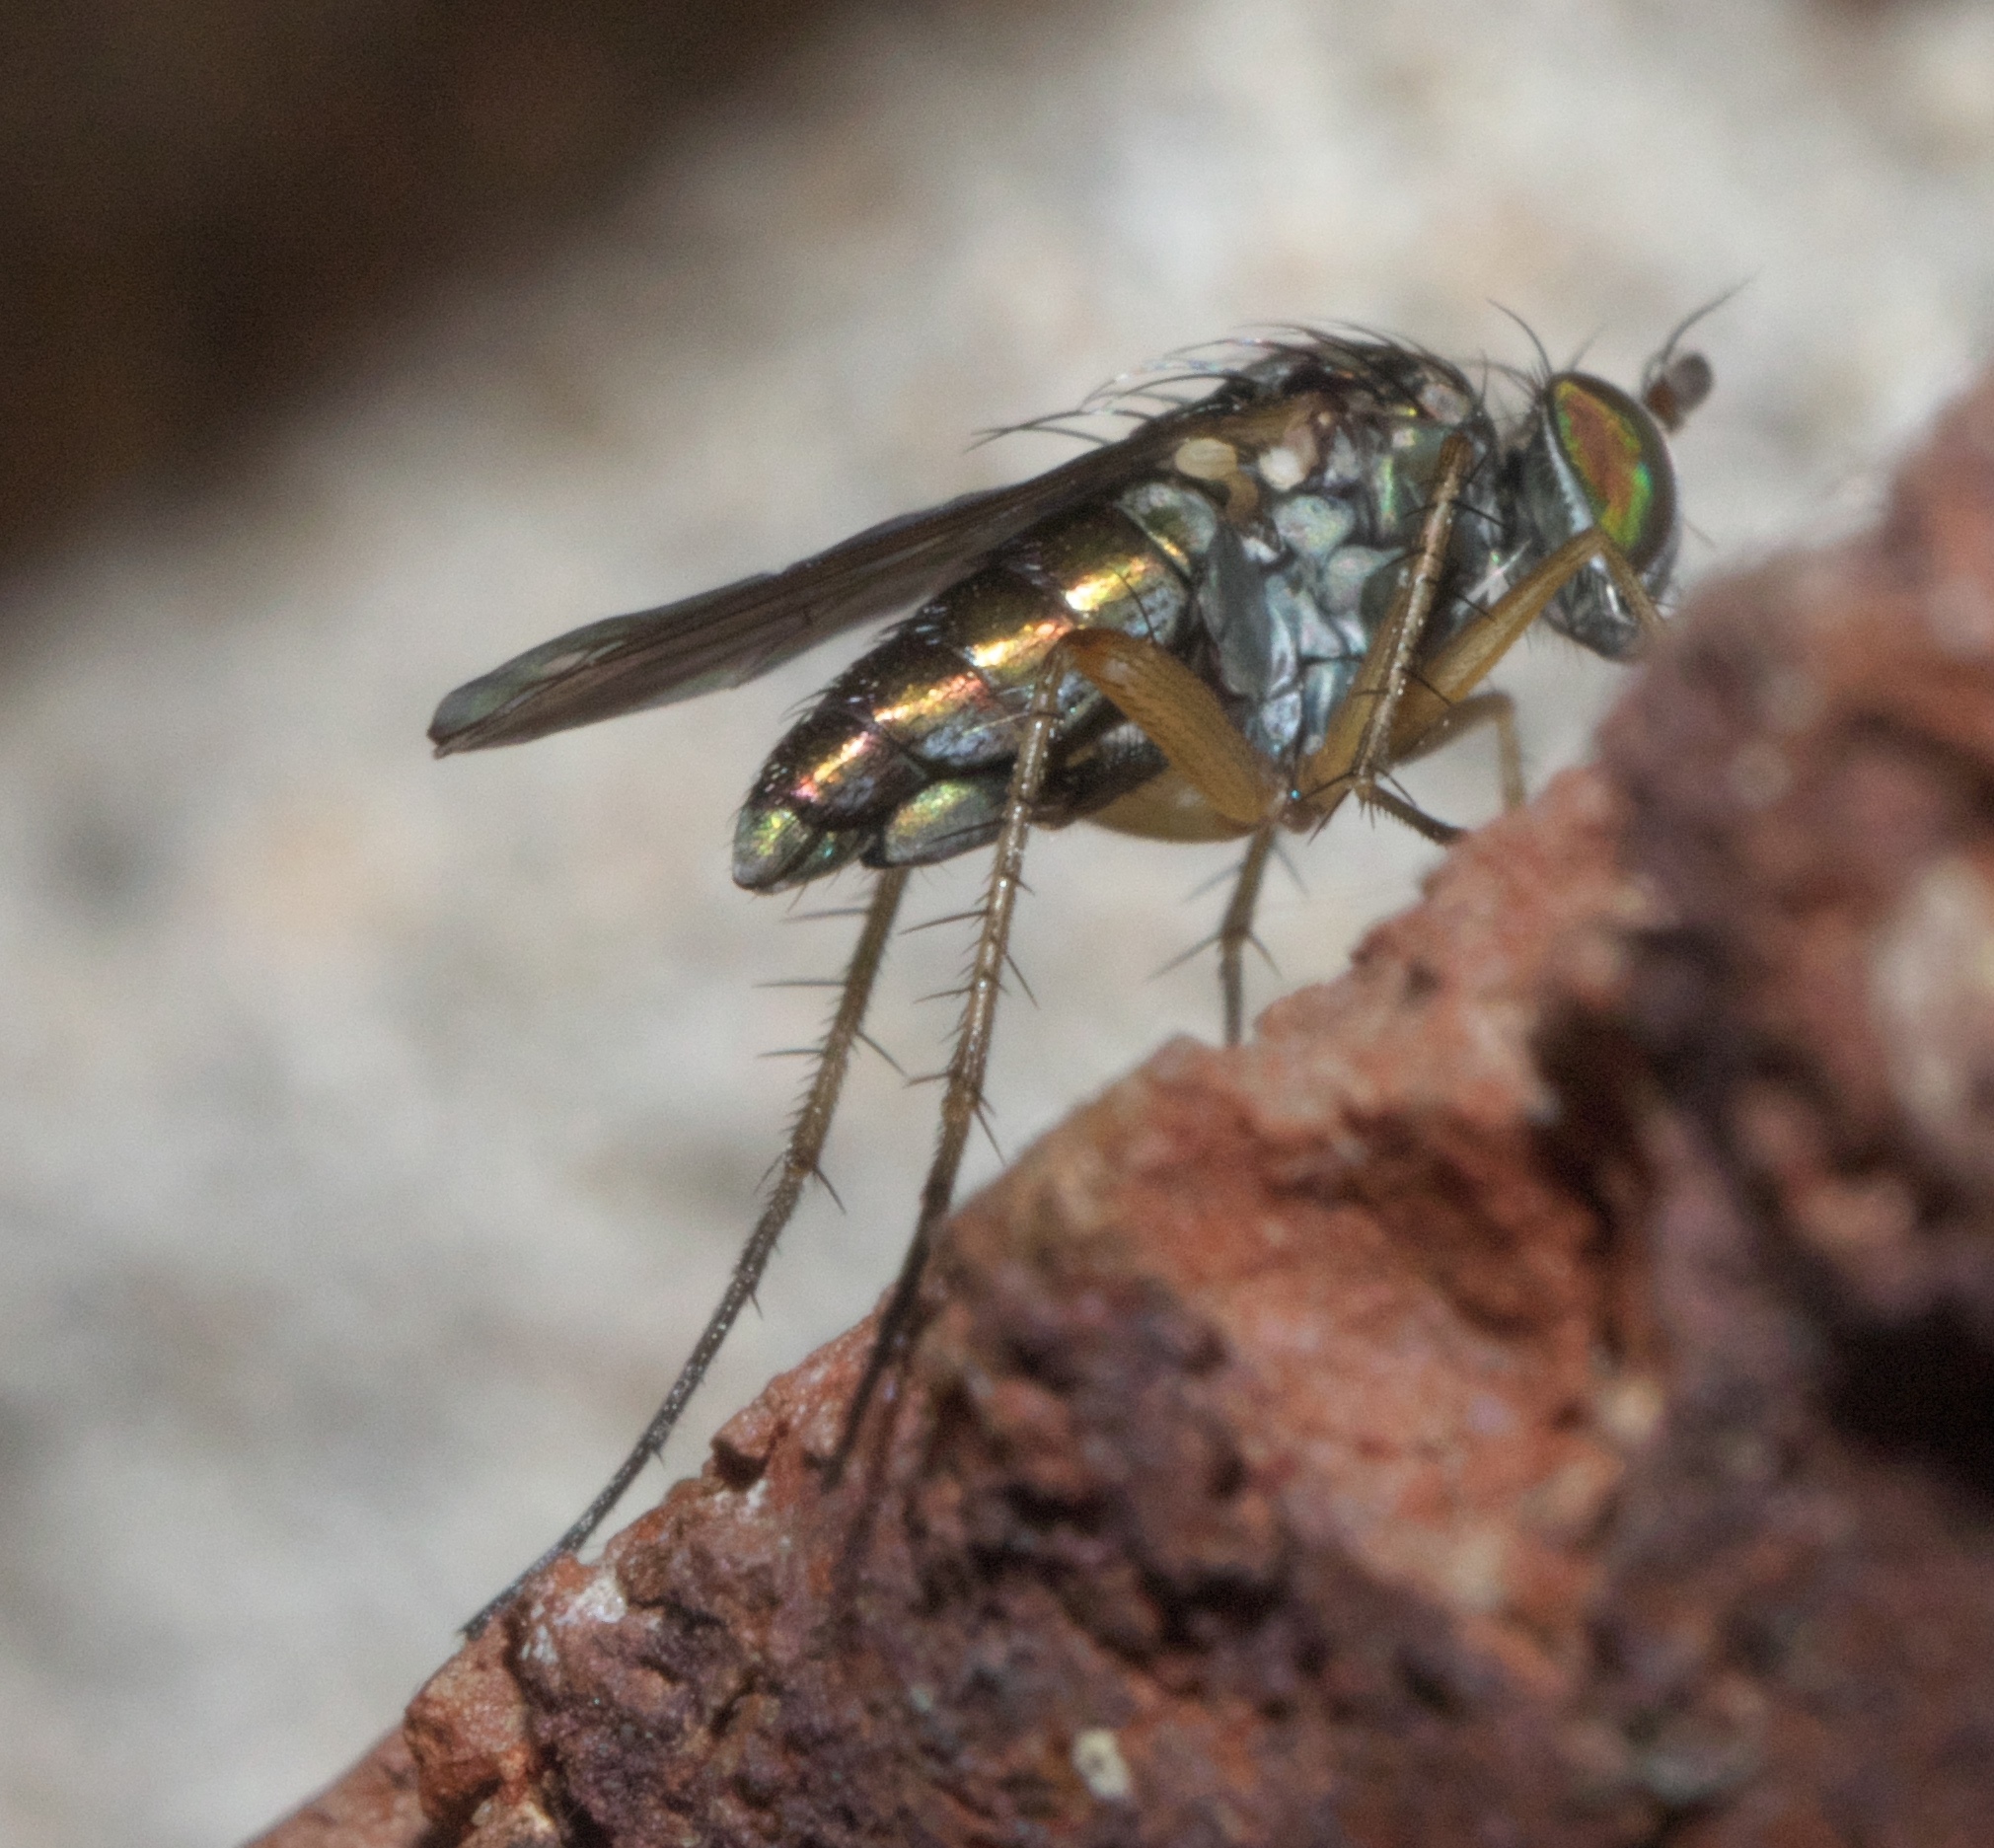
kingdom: Animalia
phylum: Arthropoda
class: Insecta
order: Diptera
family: Dolichopodidae
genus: Pelastoneurus
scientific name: Pelastoneurus vagans
